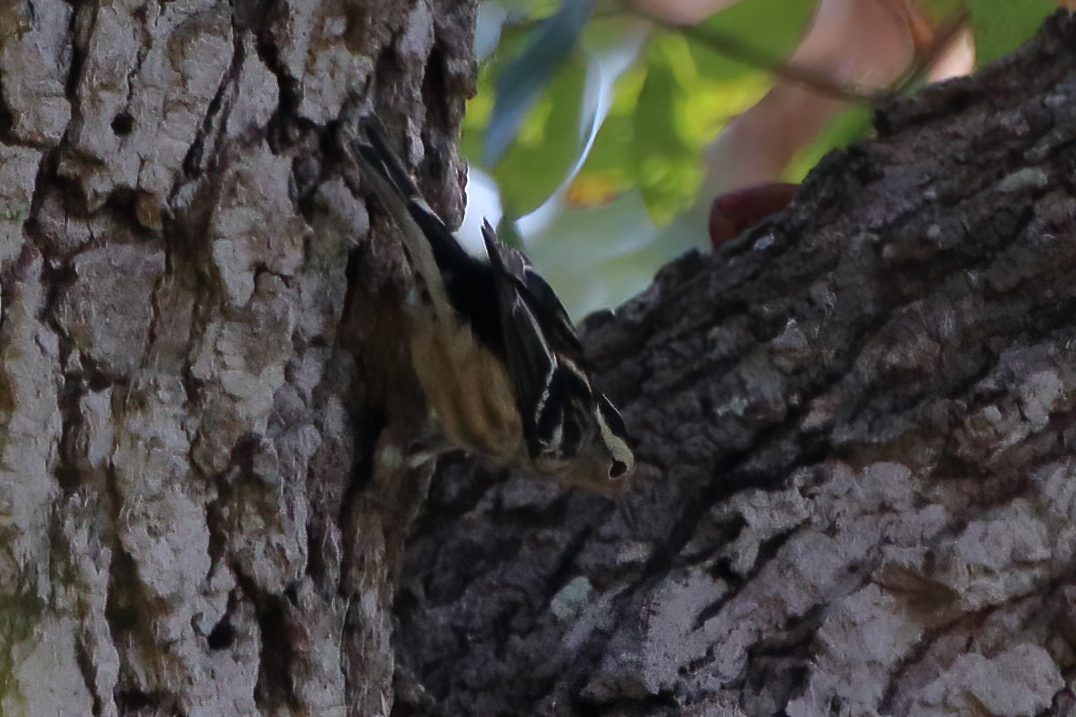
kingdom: Animalia
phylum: Chordata
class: Aves
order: Passeriformes
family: Parulidae
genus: Mniotilta
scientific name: Mniotilta varia
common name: Black-and-white warbler
